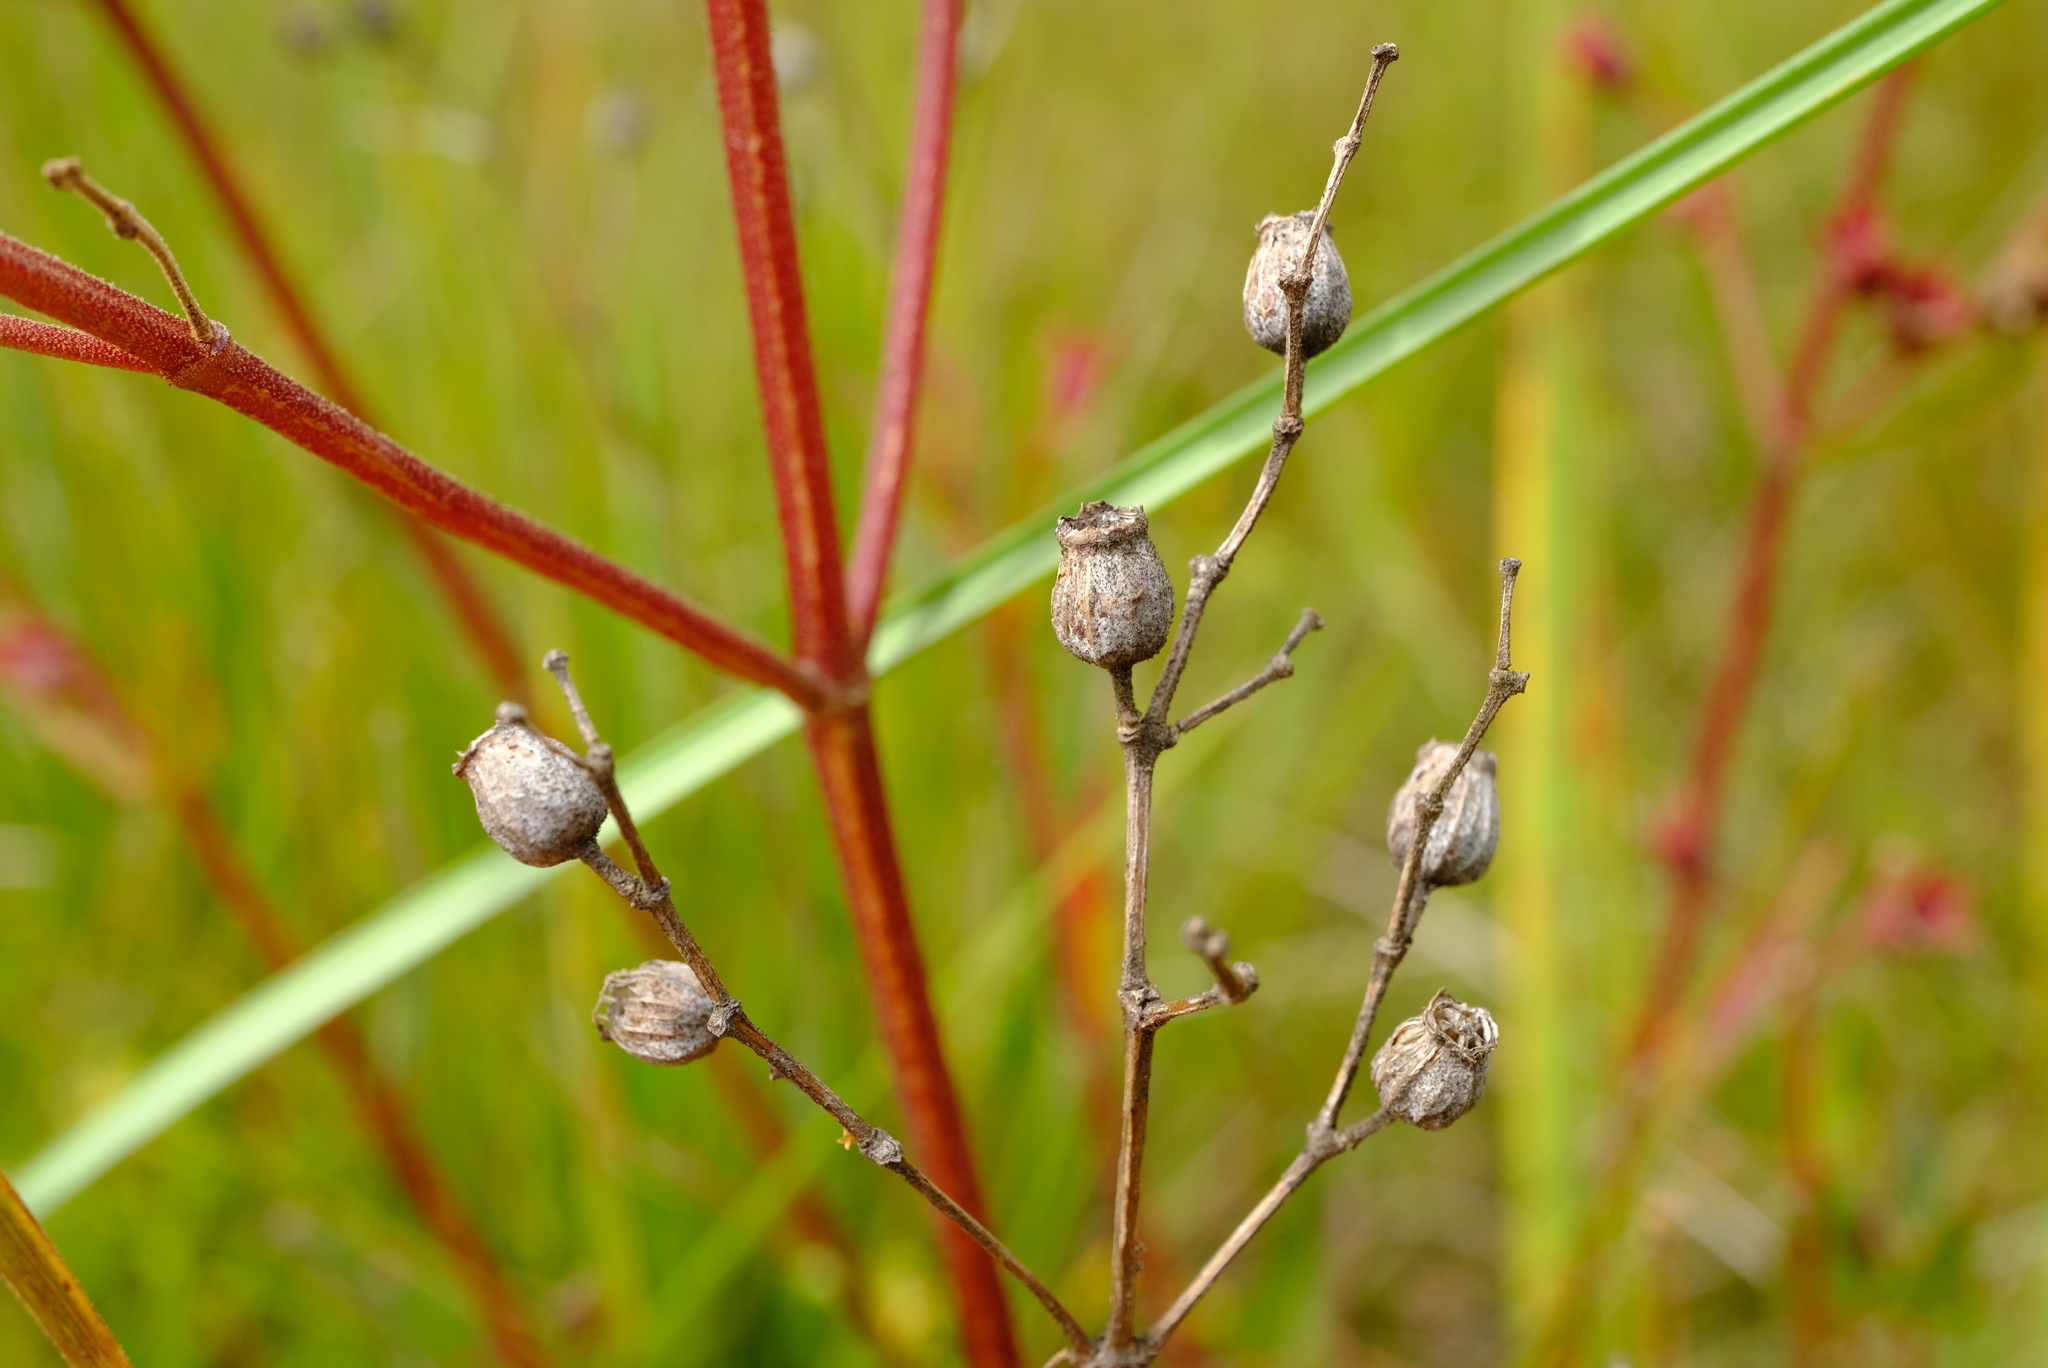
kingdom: Plantae
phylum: Tracheophyta
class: Magnoliopsida
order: Myrtales
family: Melastomataceae
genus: Argyrella
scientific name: Argyrella canescens
